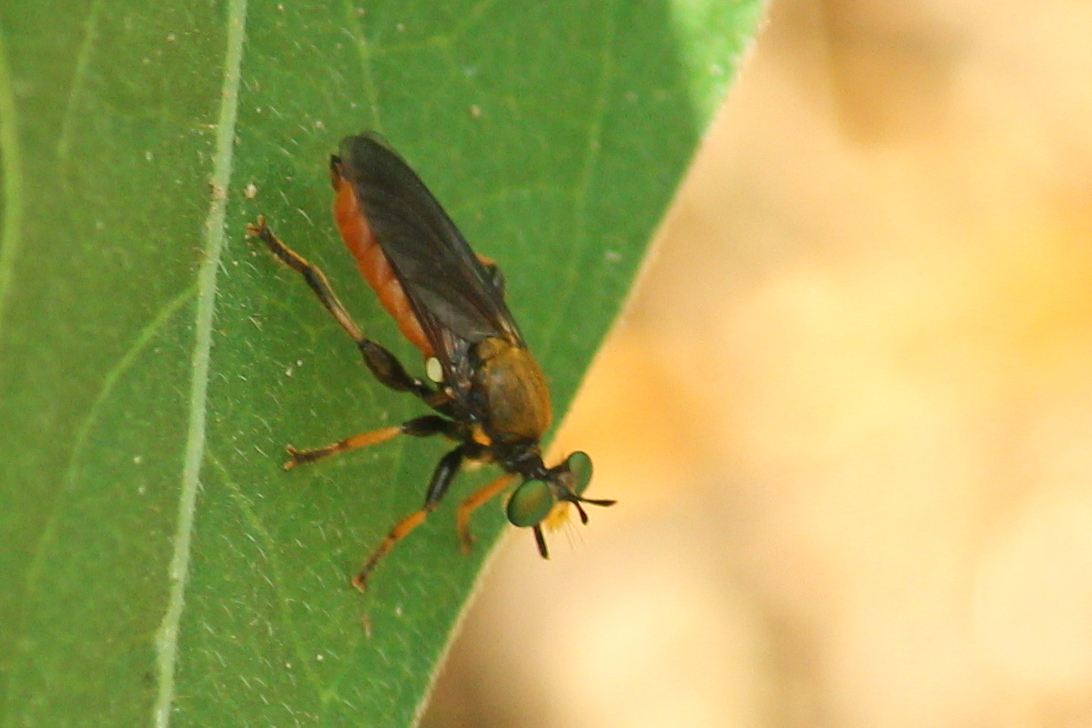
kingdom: Animalia
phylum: Arthropoda
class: Insecta
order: Diptera
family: Asilidae
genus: Lampria
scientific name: Lampria rubriventris
